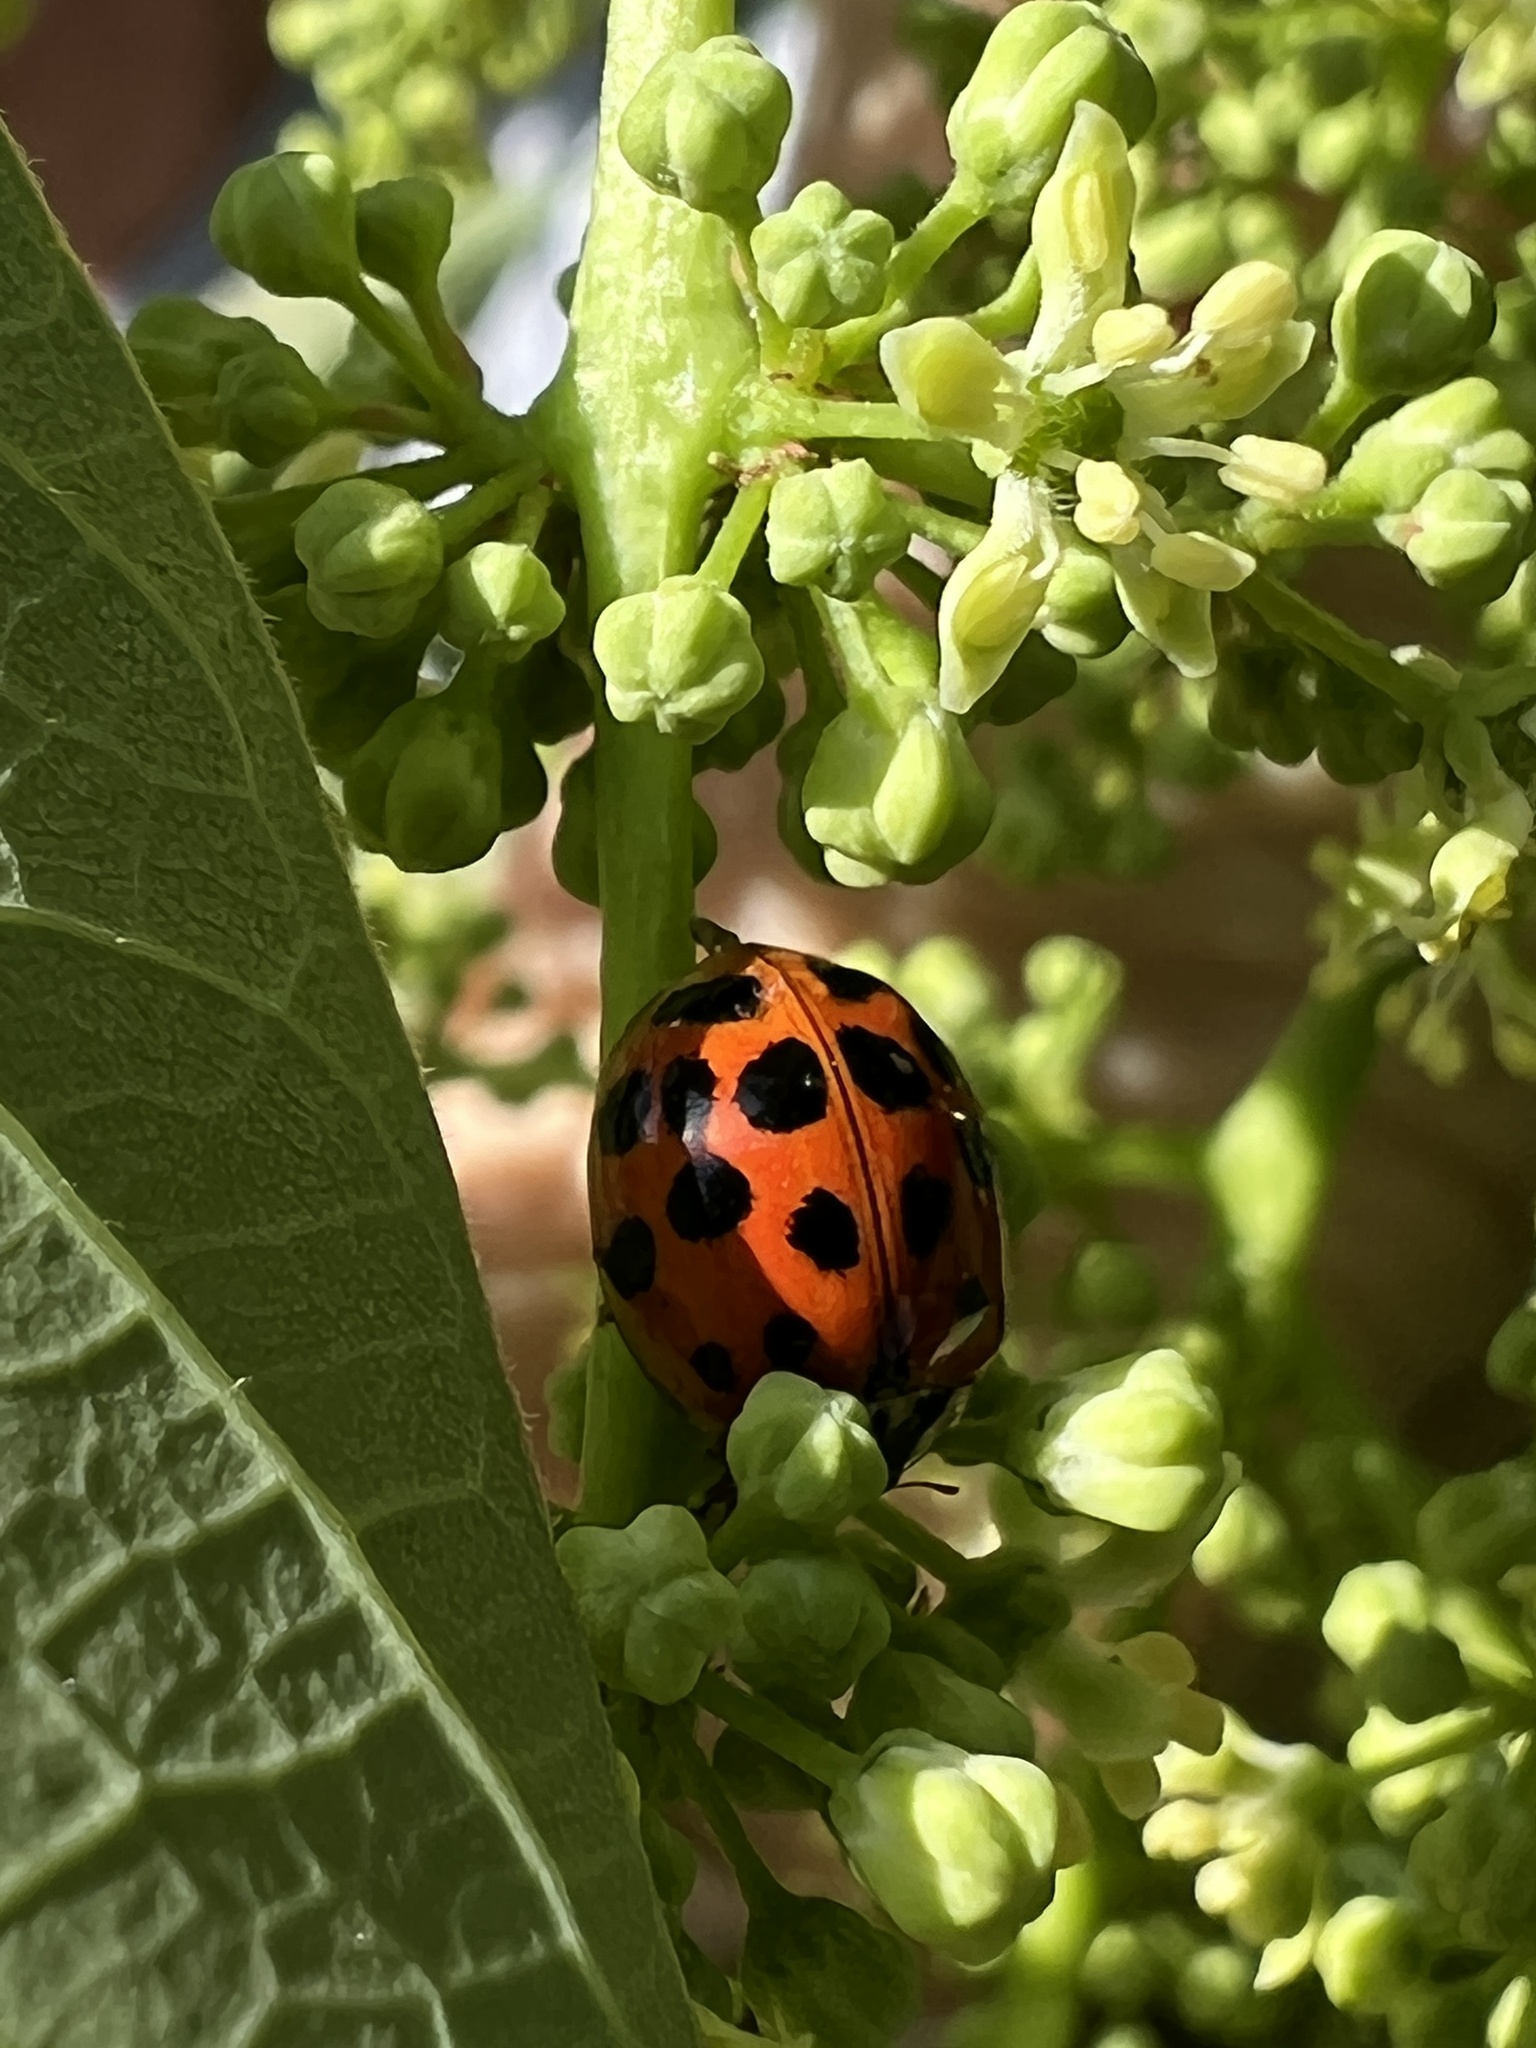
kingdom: Animalia
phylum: Arthropoda
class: Insecta
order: Coleoptera
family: Coccinellidae
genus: Harmonia
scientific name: Harmonia axyridis
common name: Harlequin ladybird
